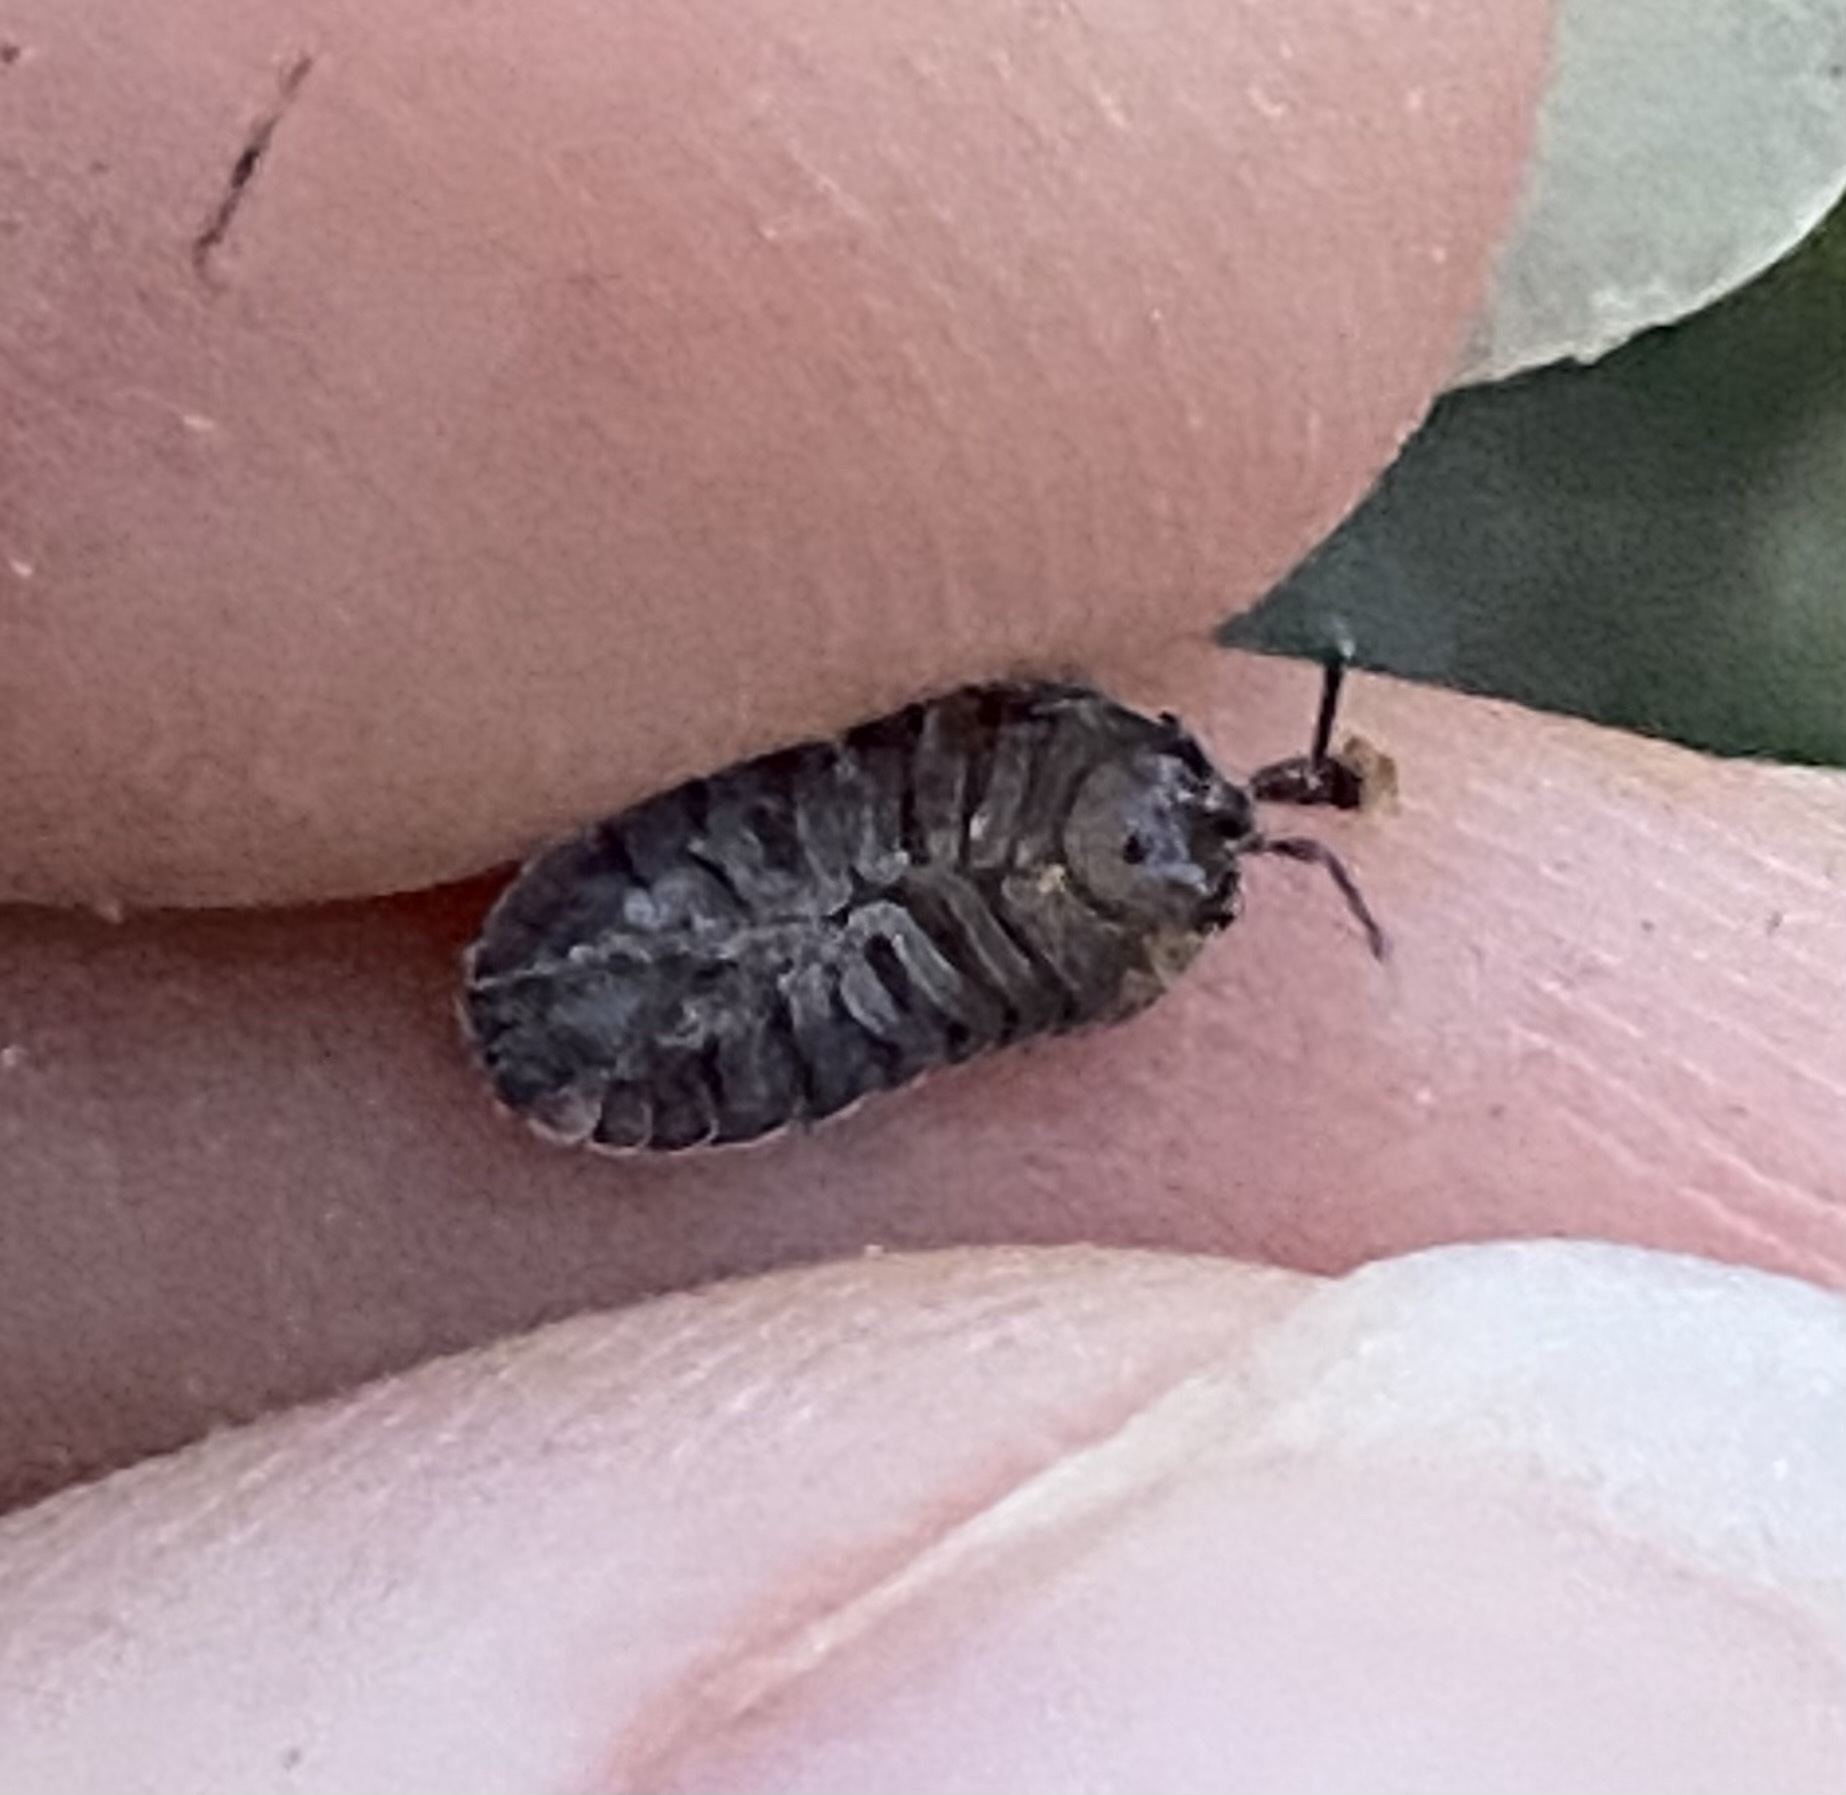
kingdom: Animalia
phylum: Arthropoda
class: Malacostraca
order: Isopoda
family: Armadillidiidae
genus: Armadillidium
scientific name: Armadillidium nasatum
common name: Isopod
